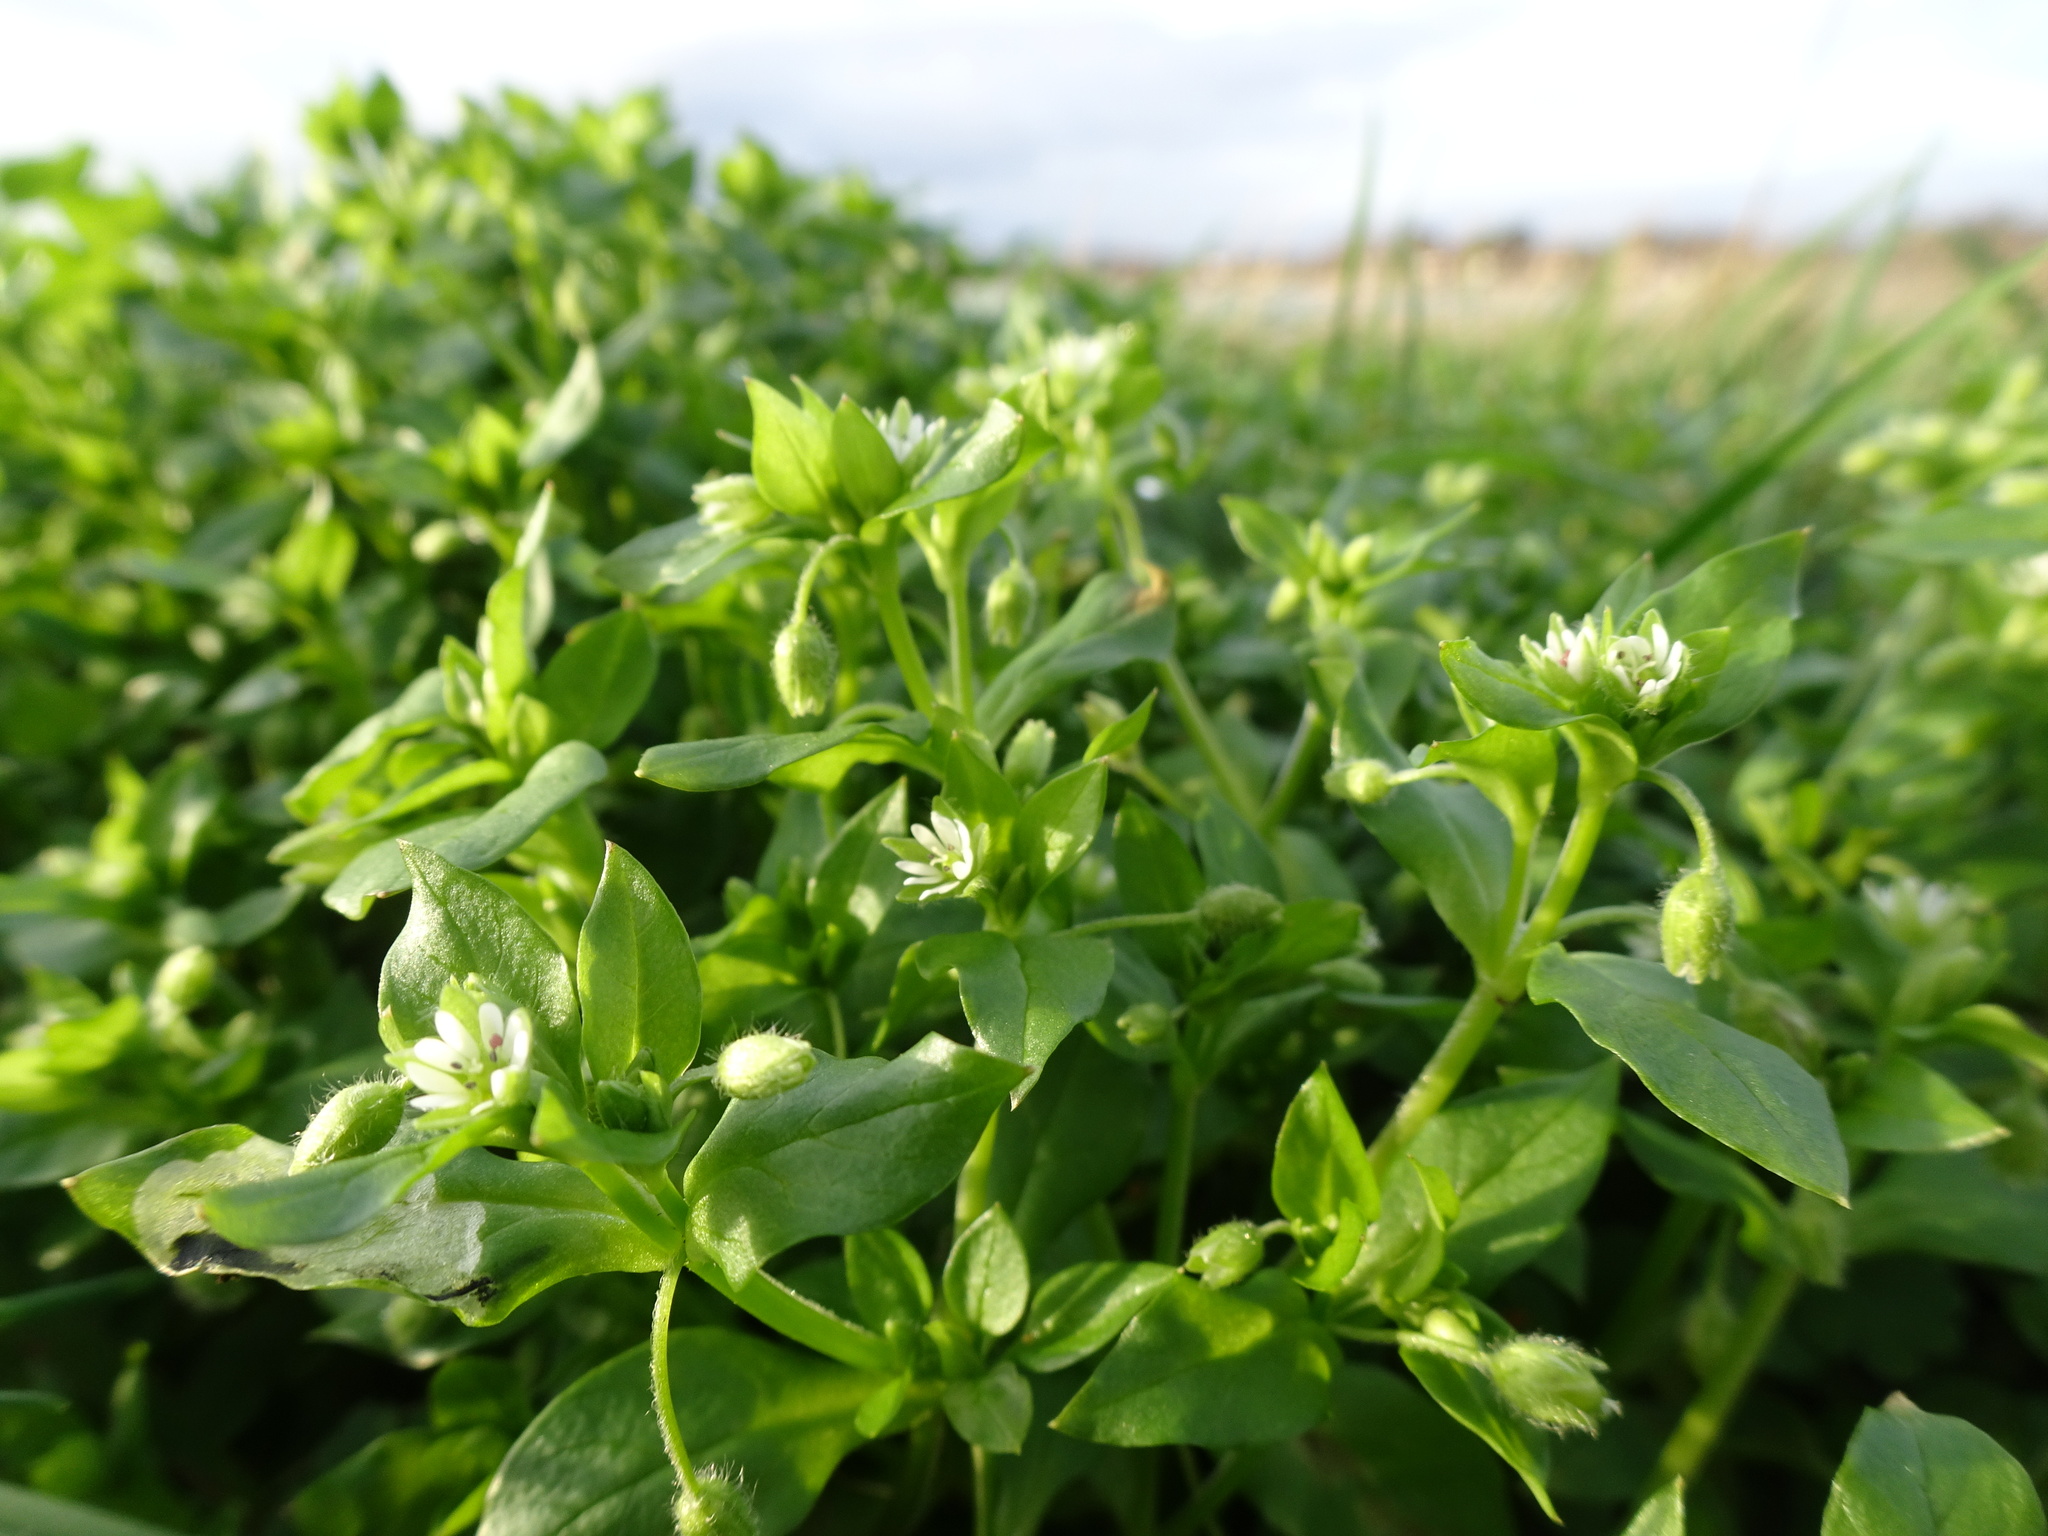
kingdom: Plantae
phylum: Tracheophyta
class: Magnoliopsida
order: Caryophyllales
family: Caryophyllaceae
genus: Stellaria
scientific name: Stellaria media
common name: Common chickweed
